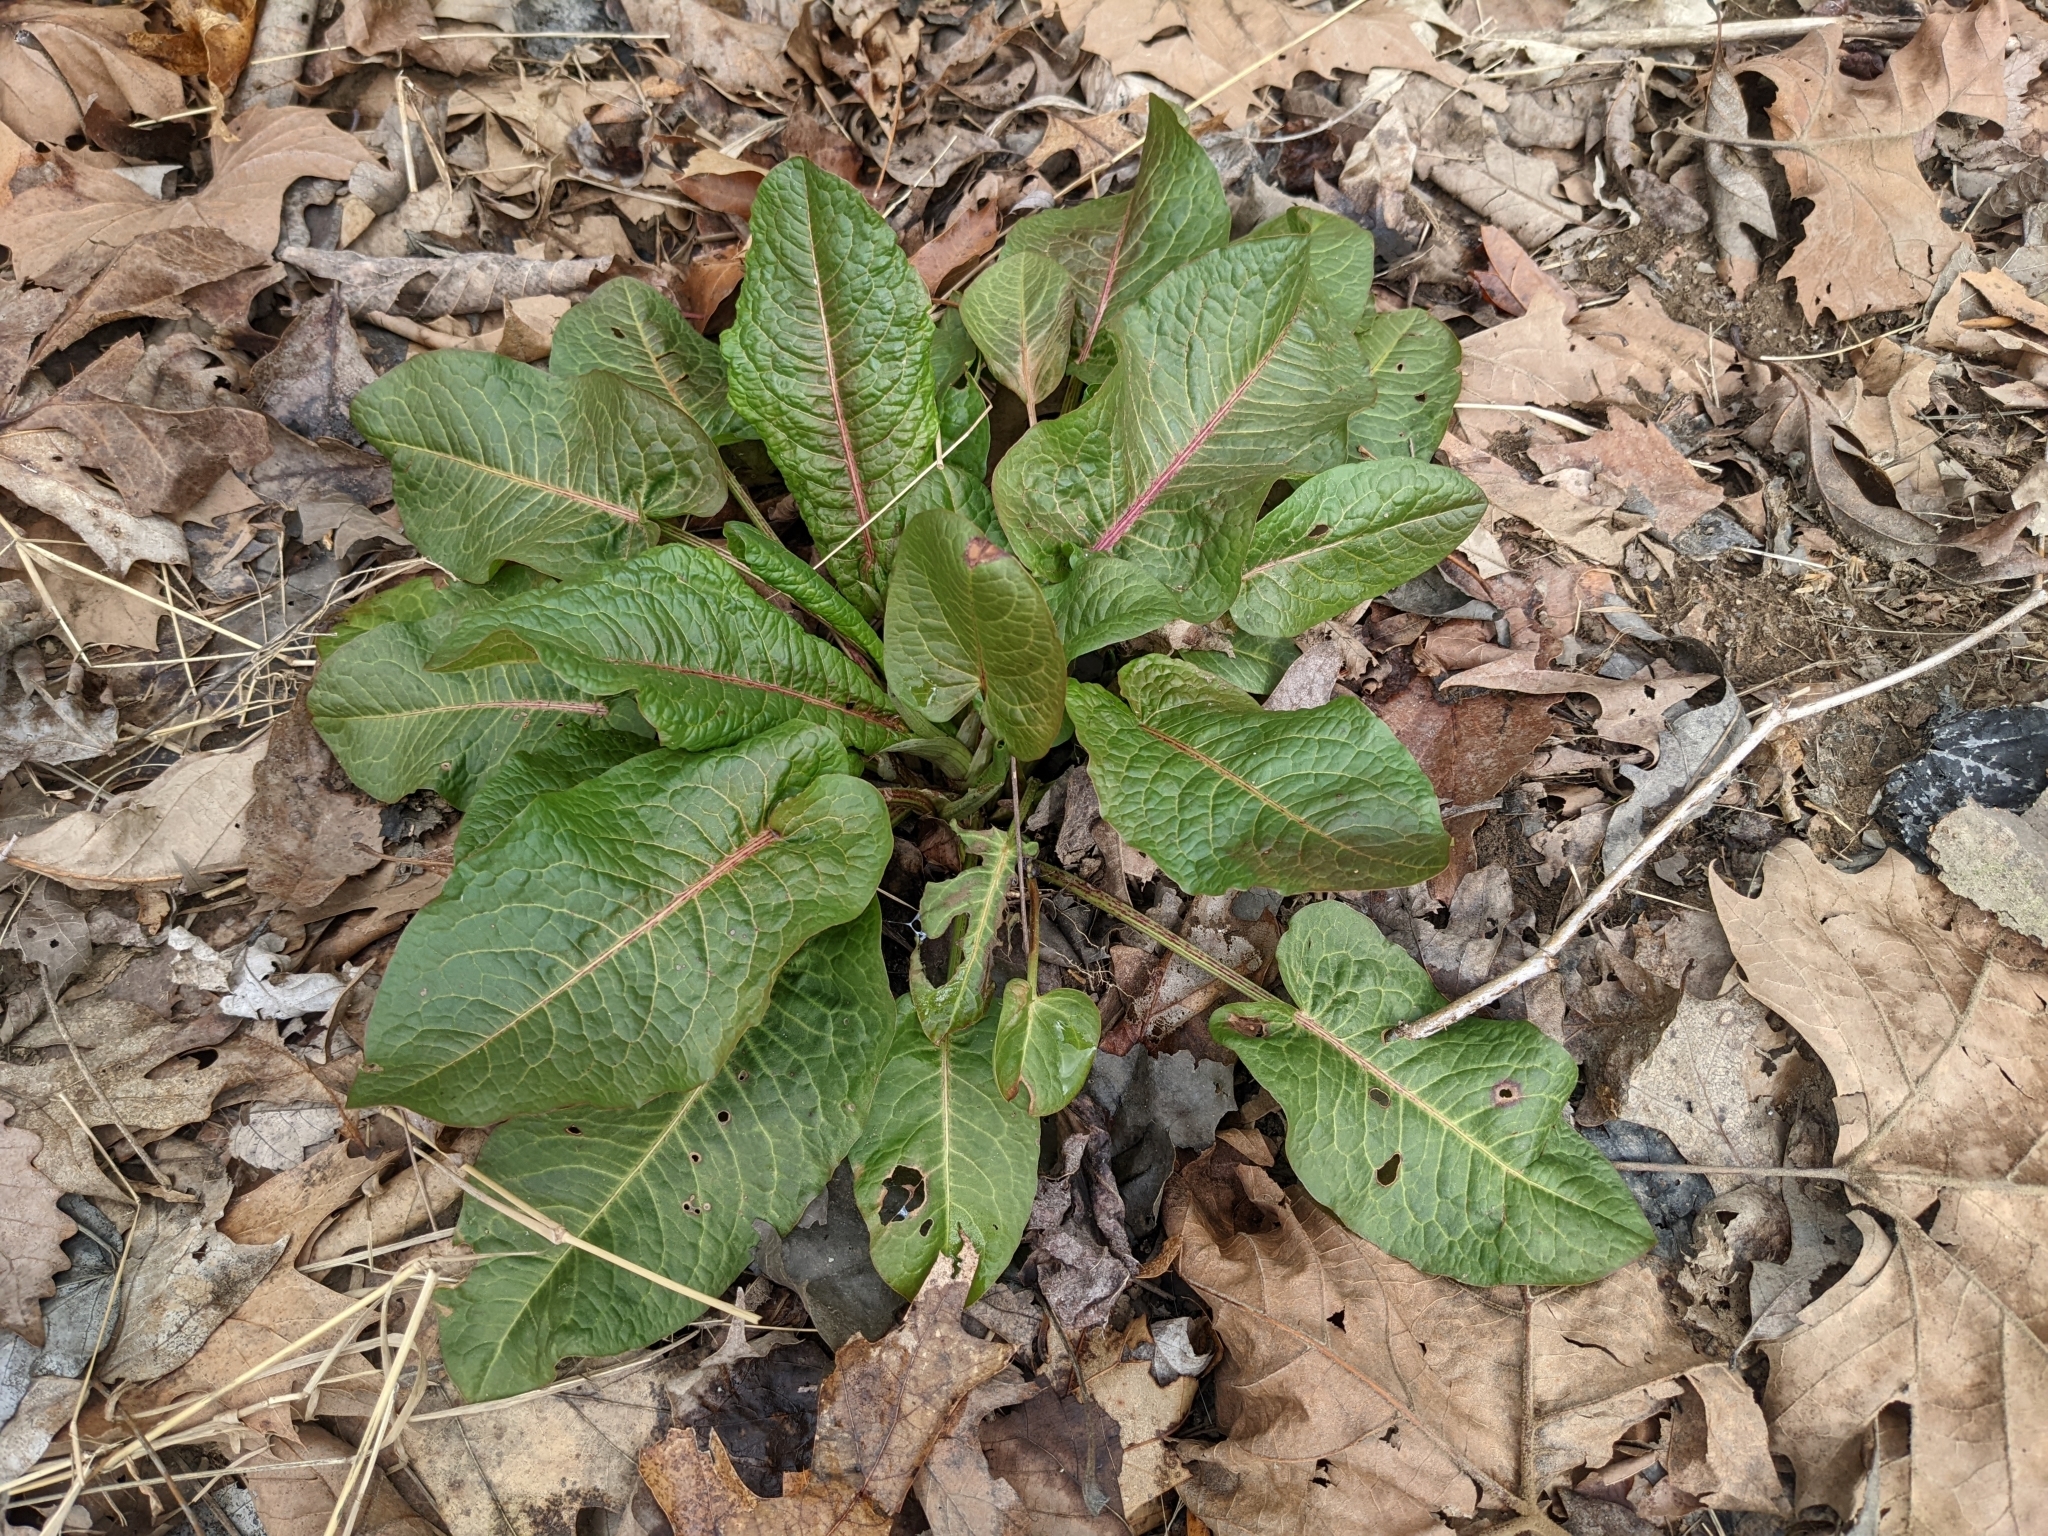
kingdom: Plantae
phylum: Tracheophyta
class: Magnoliopsida
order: Caryophyllales
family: Polygonaceae
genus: Rumex
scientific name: Rumex obtusifolius
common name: Bitter dock
